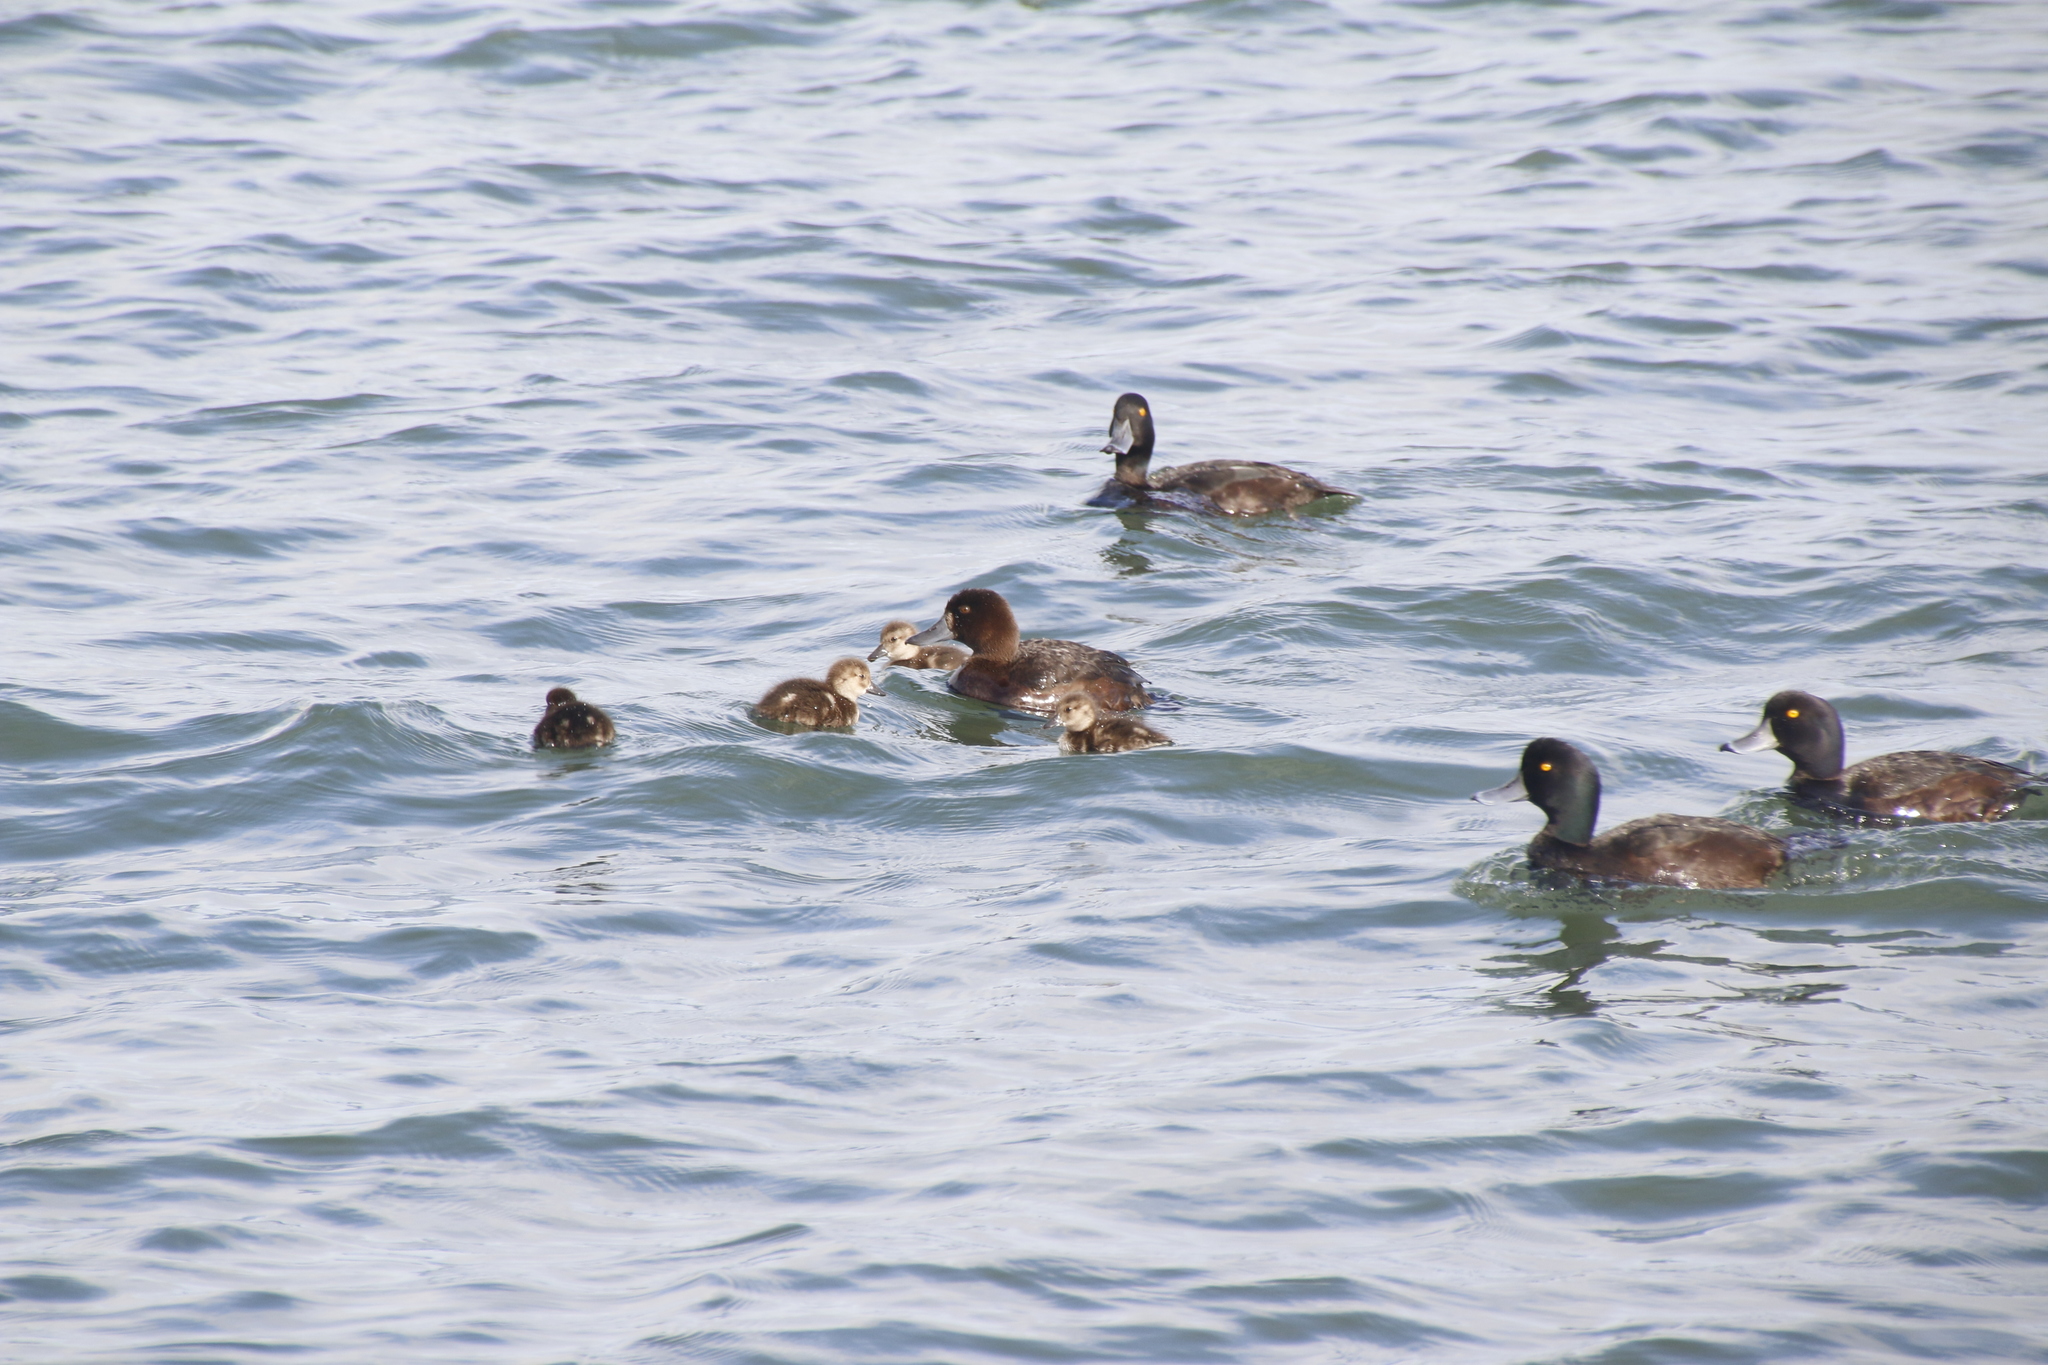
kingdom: Animalia
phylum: Chordata
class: Aves
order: Anseriformes
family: Anatidae
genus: Aythya
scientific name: Aythya novaeseelandiae
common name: New zealand scaup
